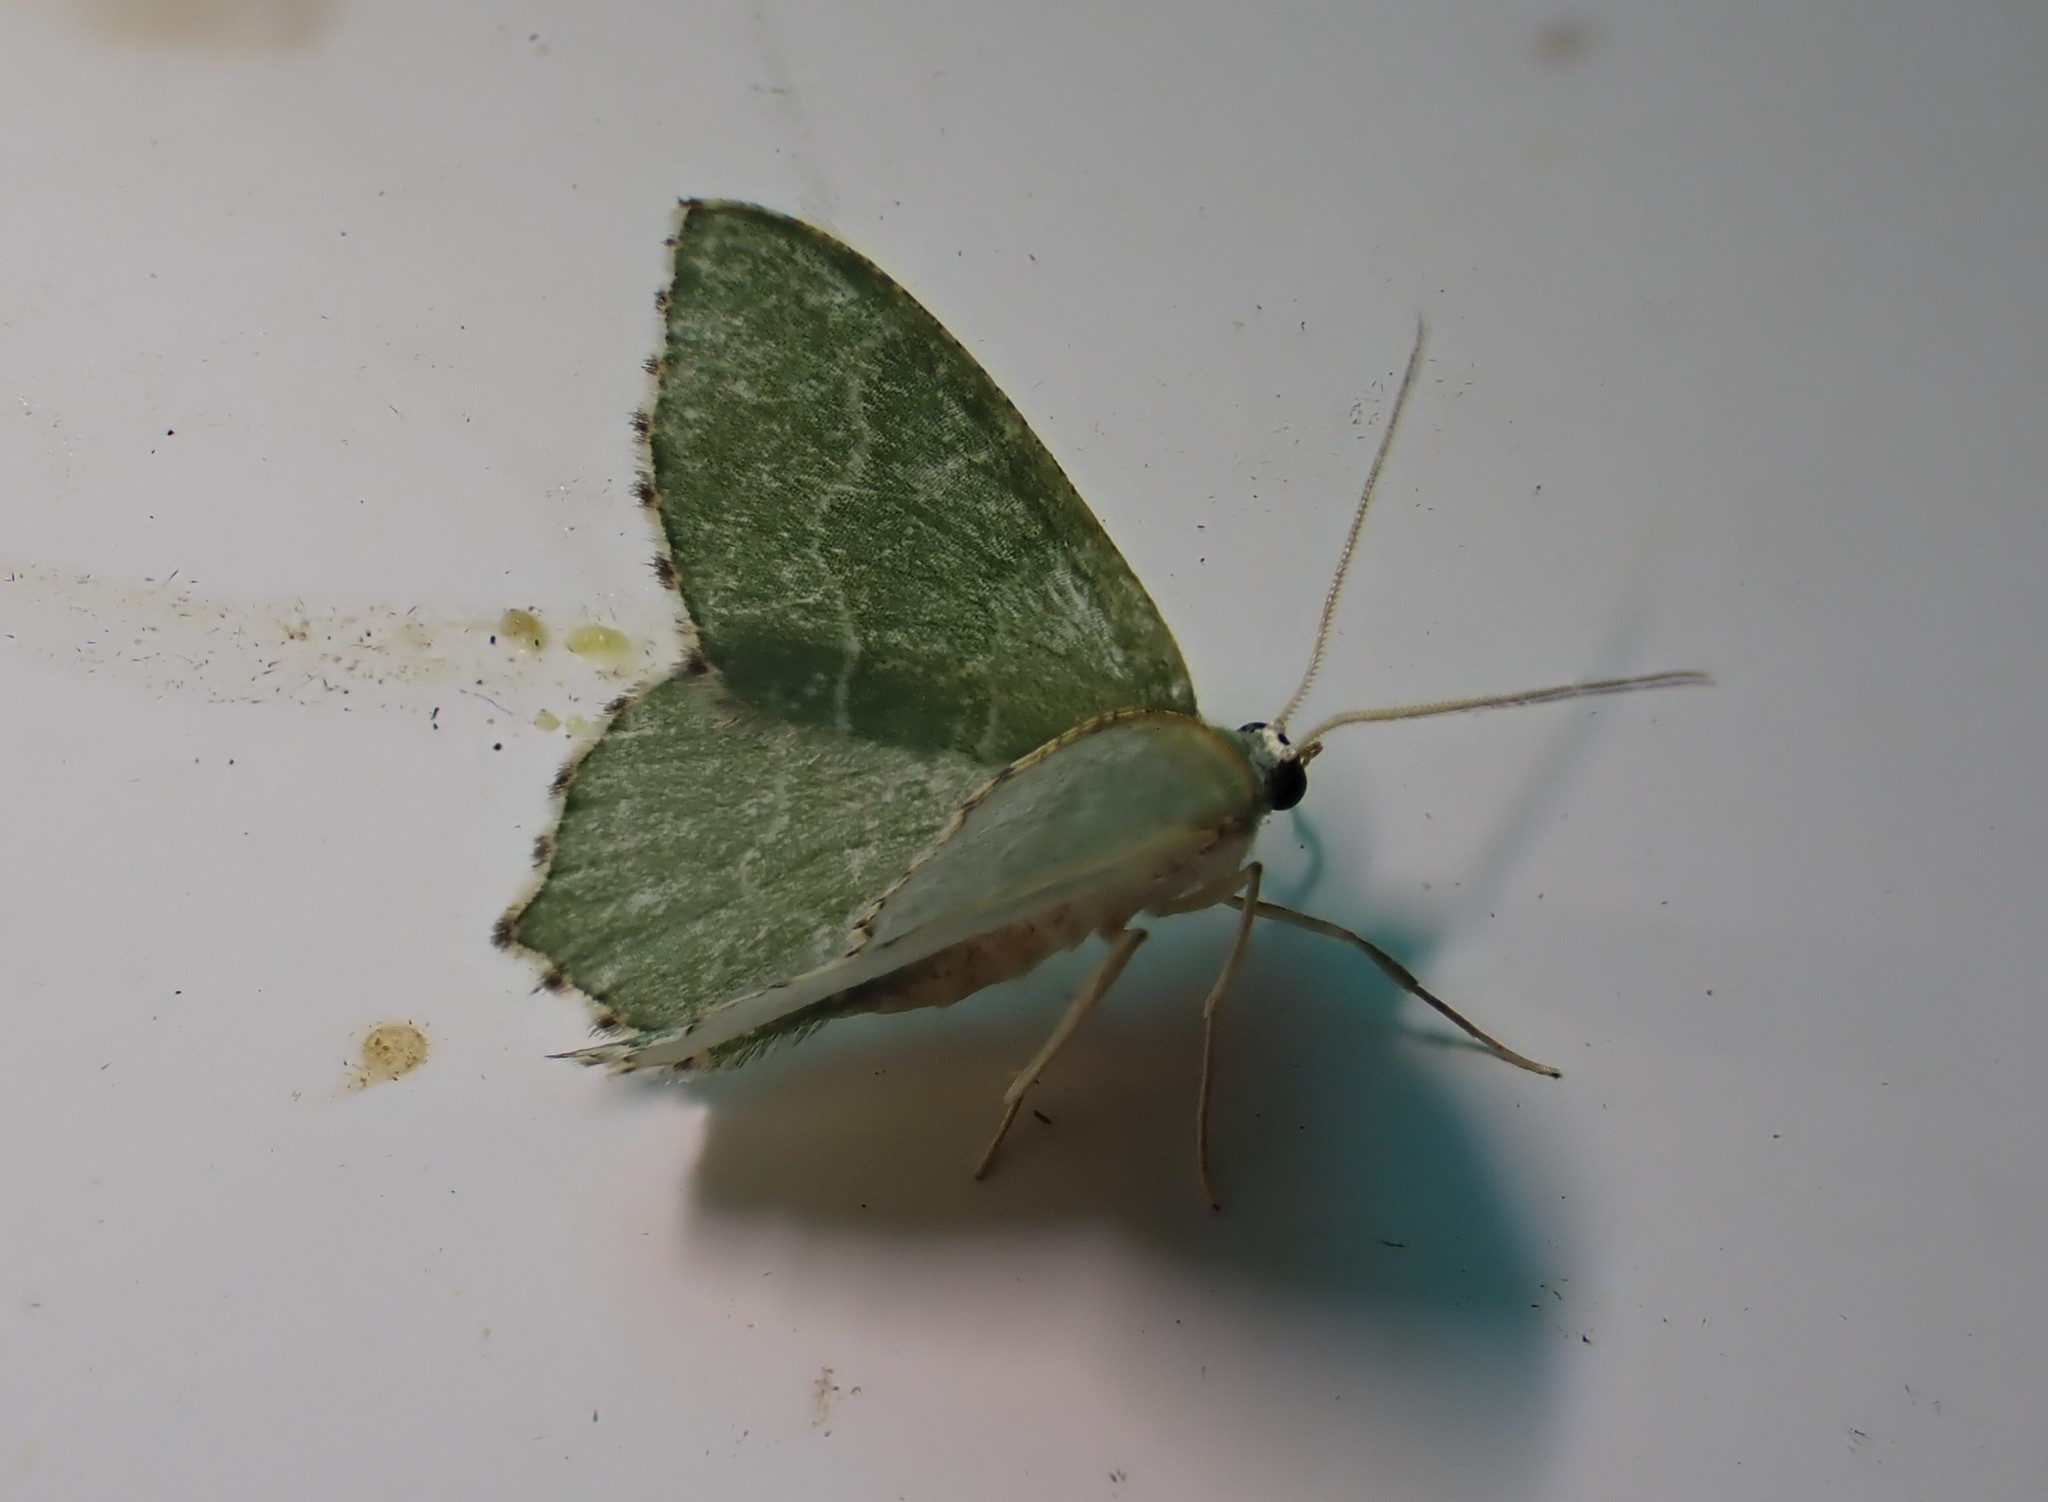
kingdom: Animalia
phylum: Arthropoda
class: Insecta
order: Lepidoptera
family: Geometridae
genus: Hemithea
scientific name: Hemithea aestivaria
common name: Common emerald
